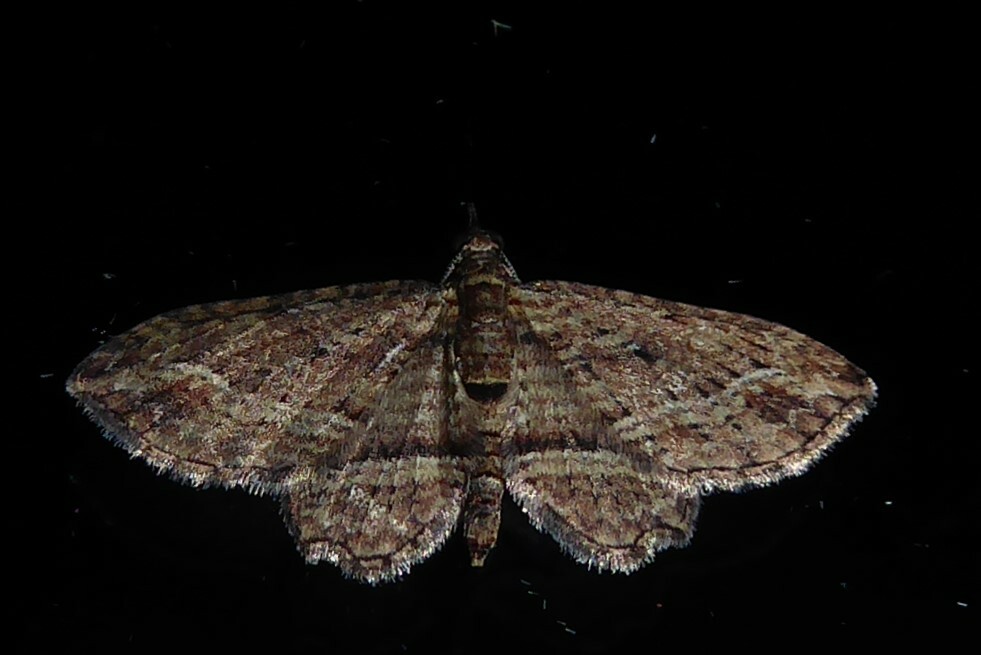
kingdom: Animalia
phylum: Arthropoda
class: Insecta
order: Lepidoptera
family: Geometridae
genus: Chloroclystis
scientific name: Chloroclystis filata
